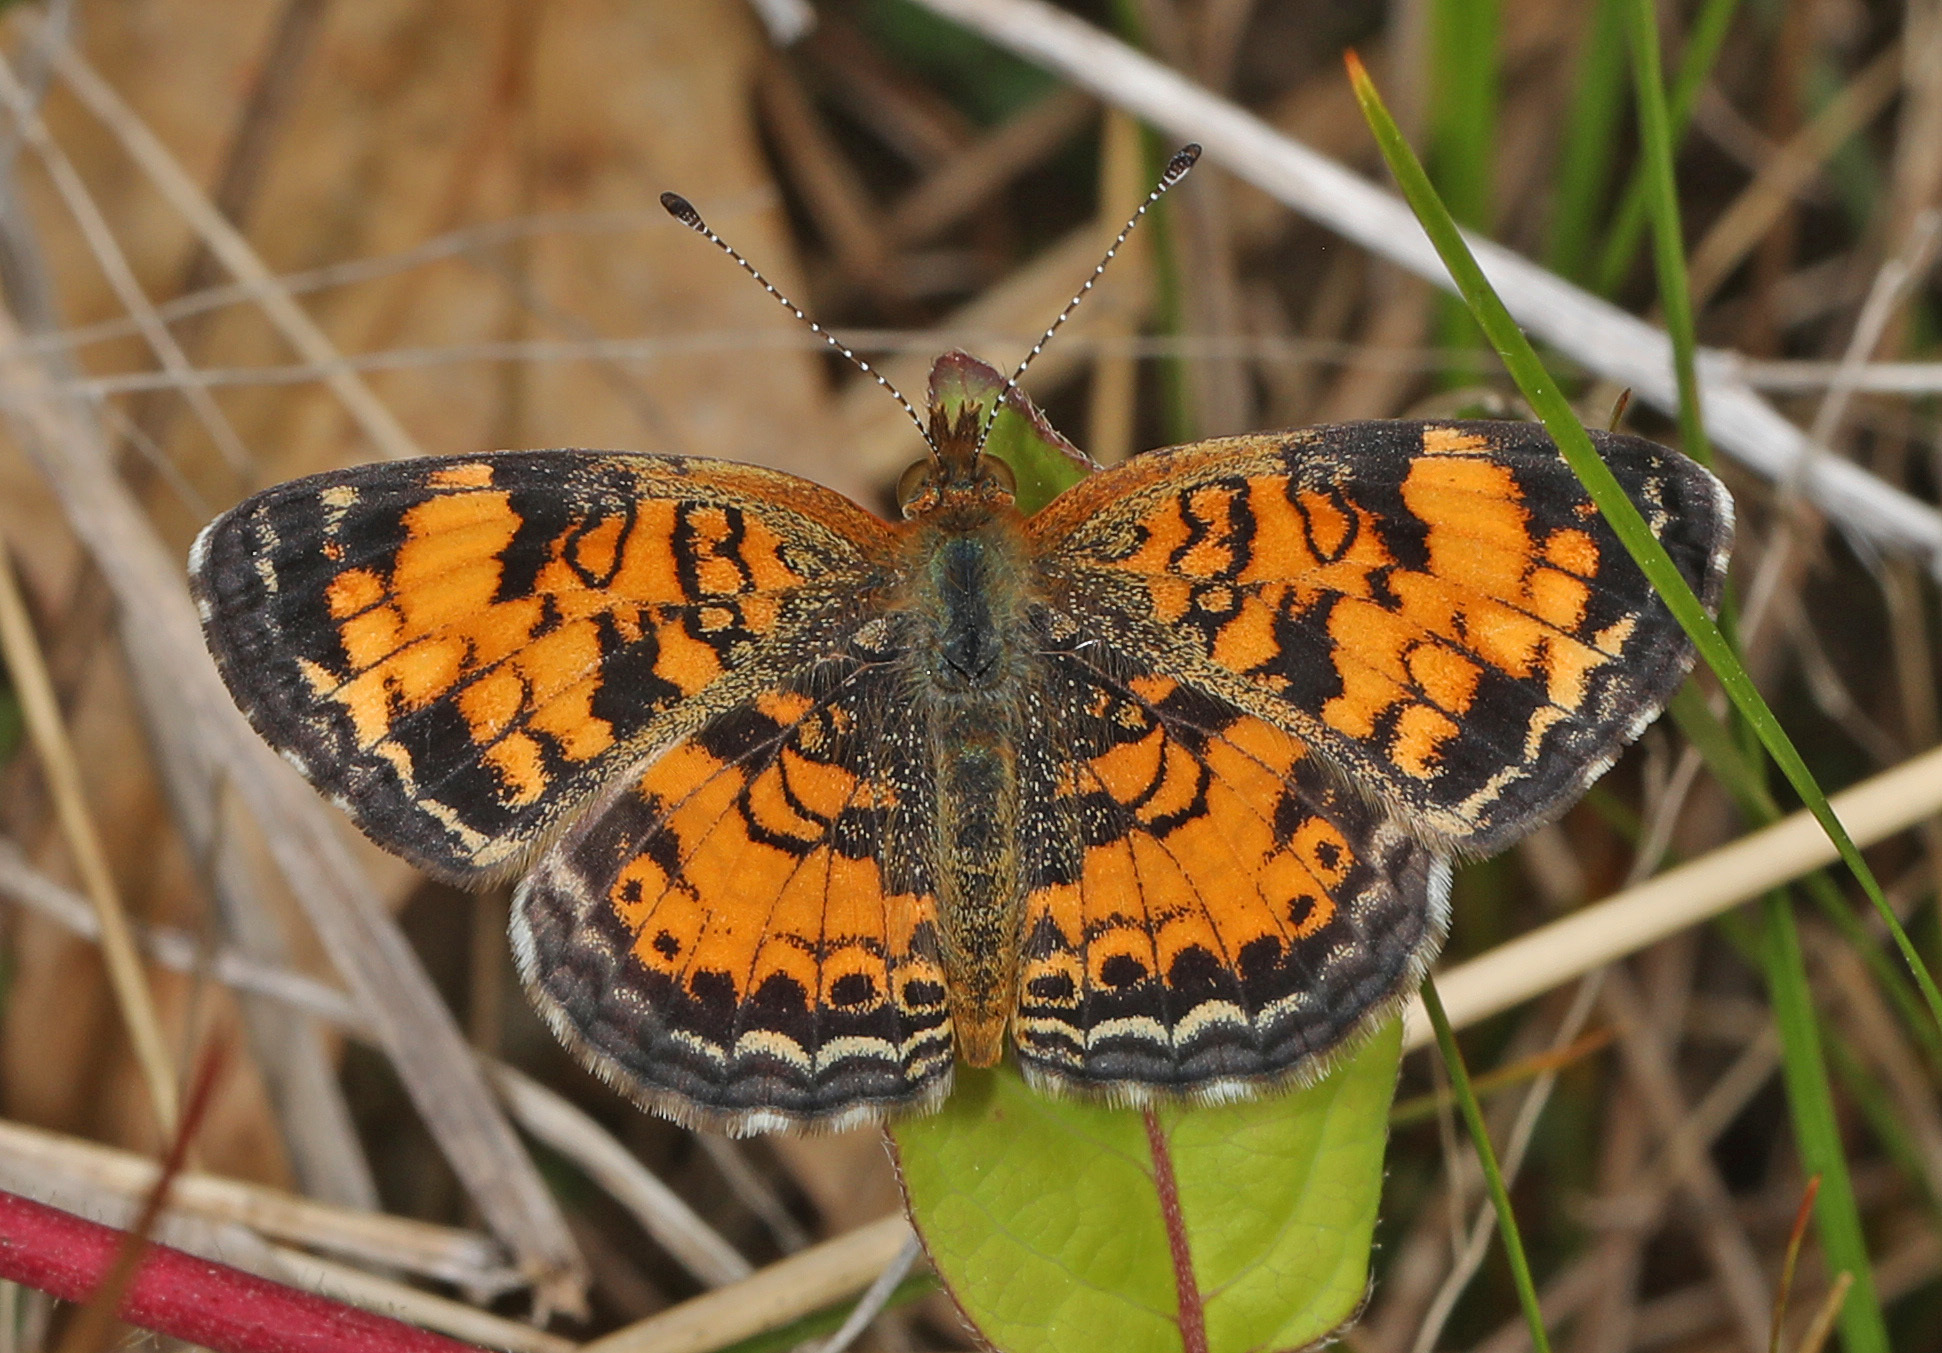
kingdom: Animalia
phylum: Arthropoda
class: Insecta
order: Lepidoptera
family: Nymphalidae
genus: Phyciodes
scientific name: Phyciodes tharos
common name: Pearl crescent
